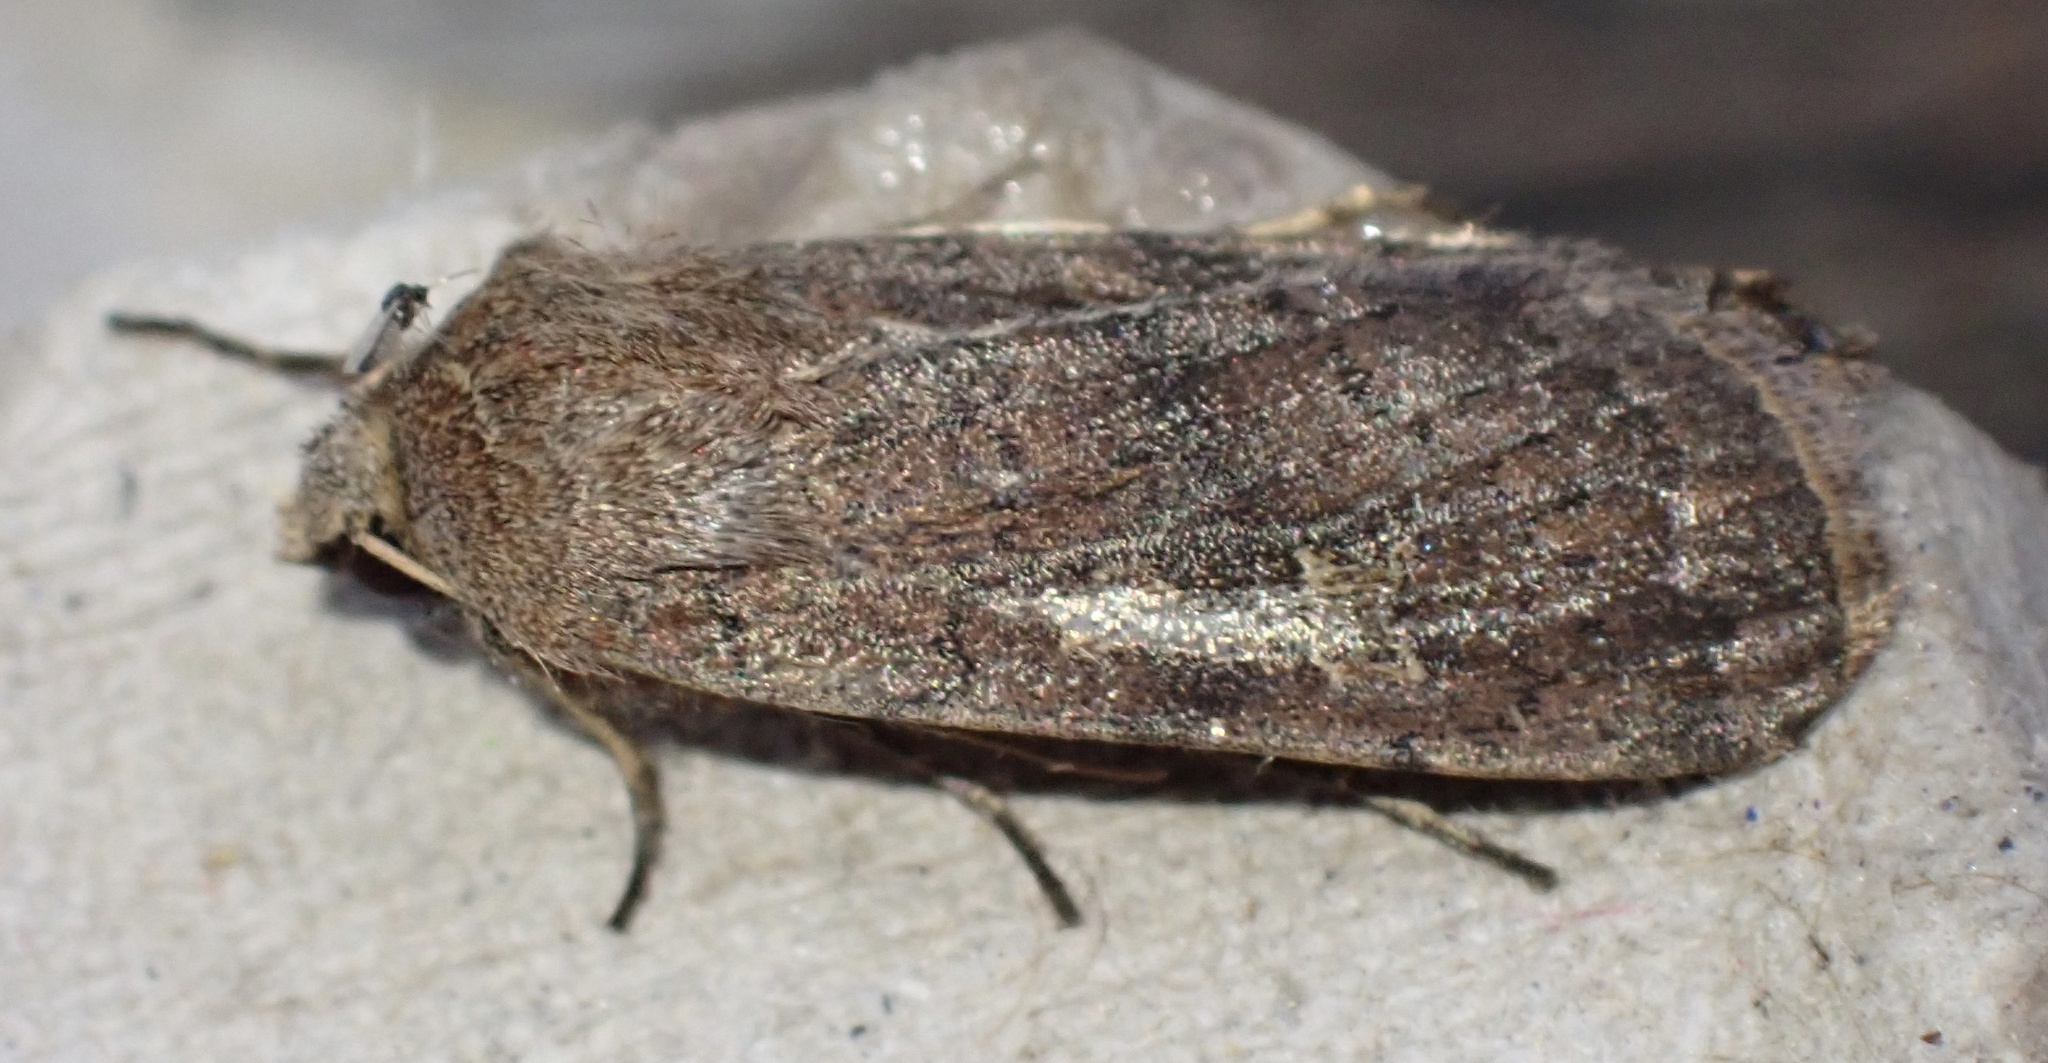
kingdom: Animalia
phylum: Arthropoda
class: Insecta
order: Lepidoptera
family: Noctuidae
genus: Xestia
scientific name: Xestia xanthographa
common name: Square-spot rustic
